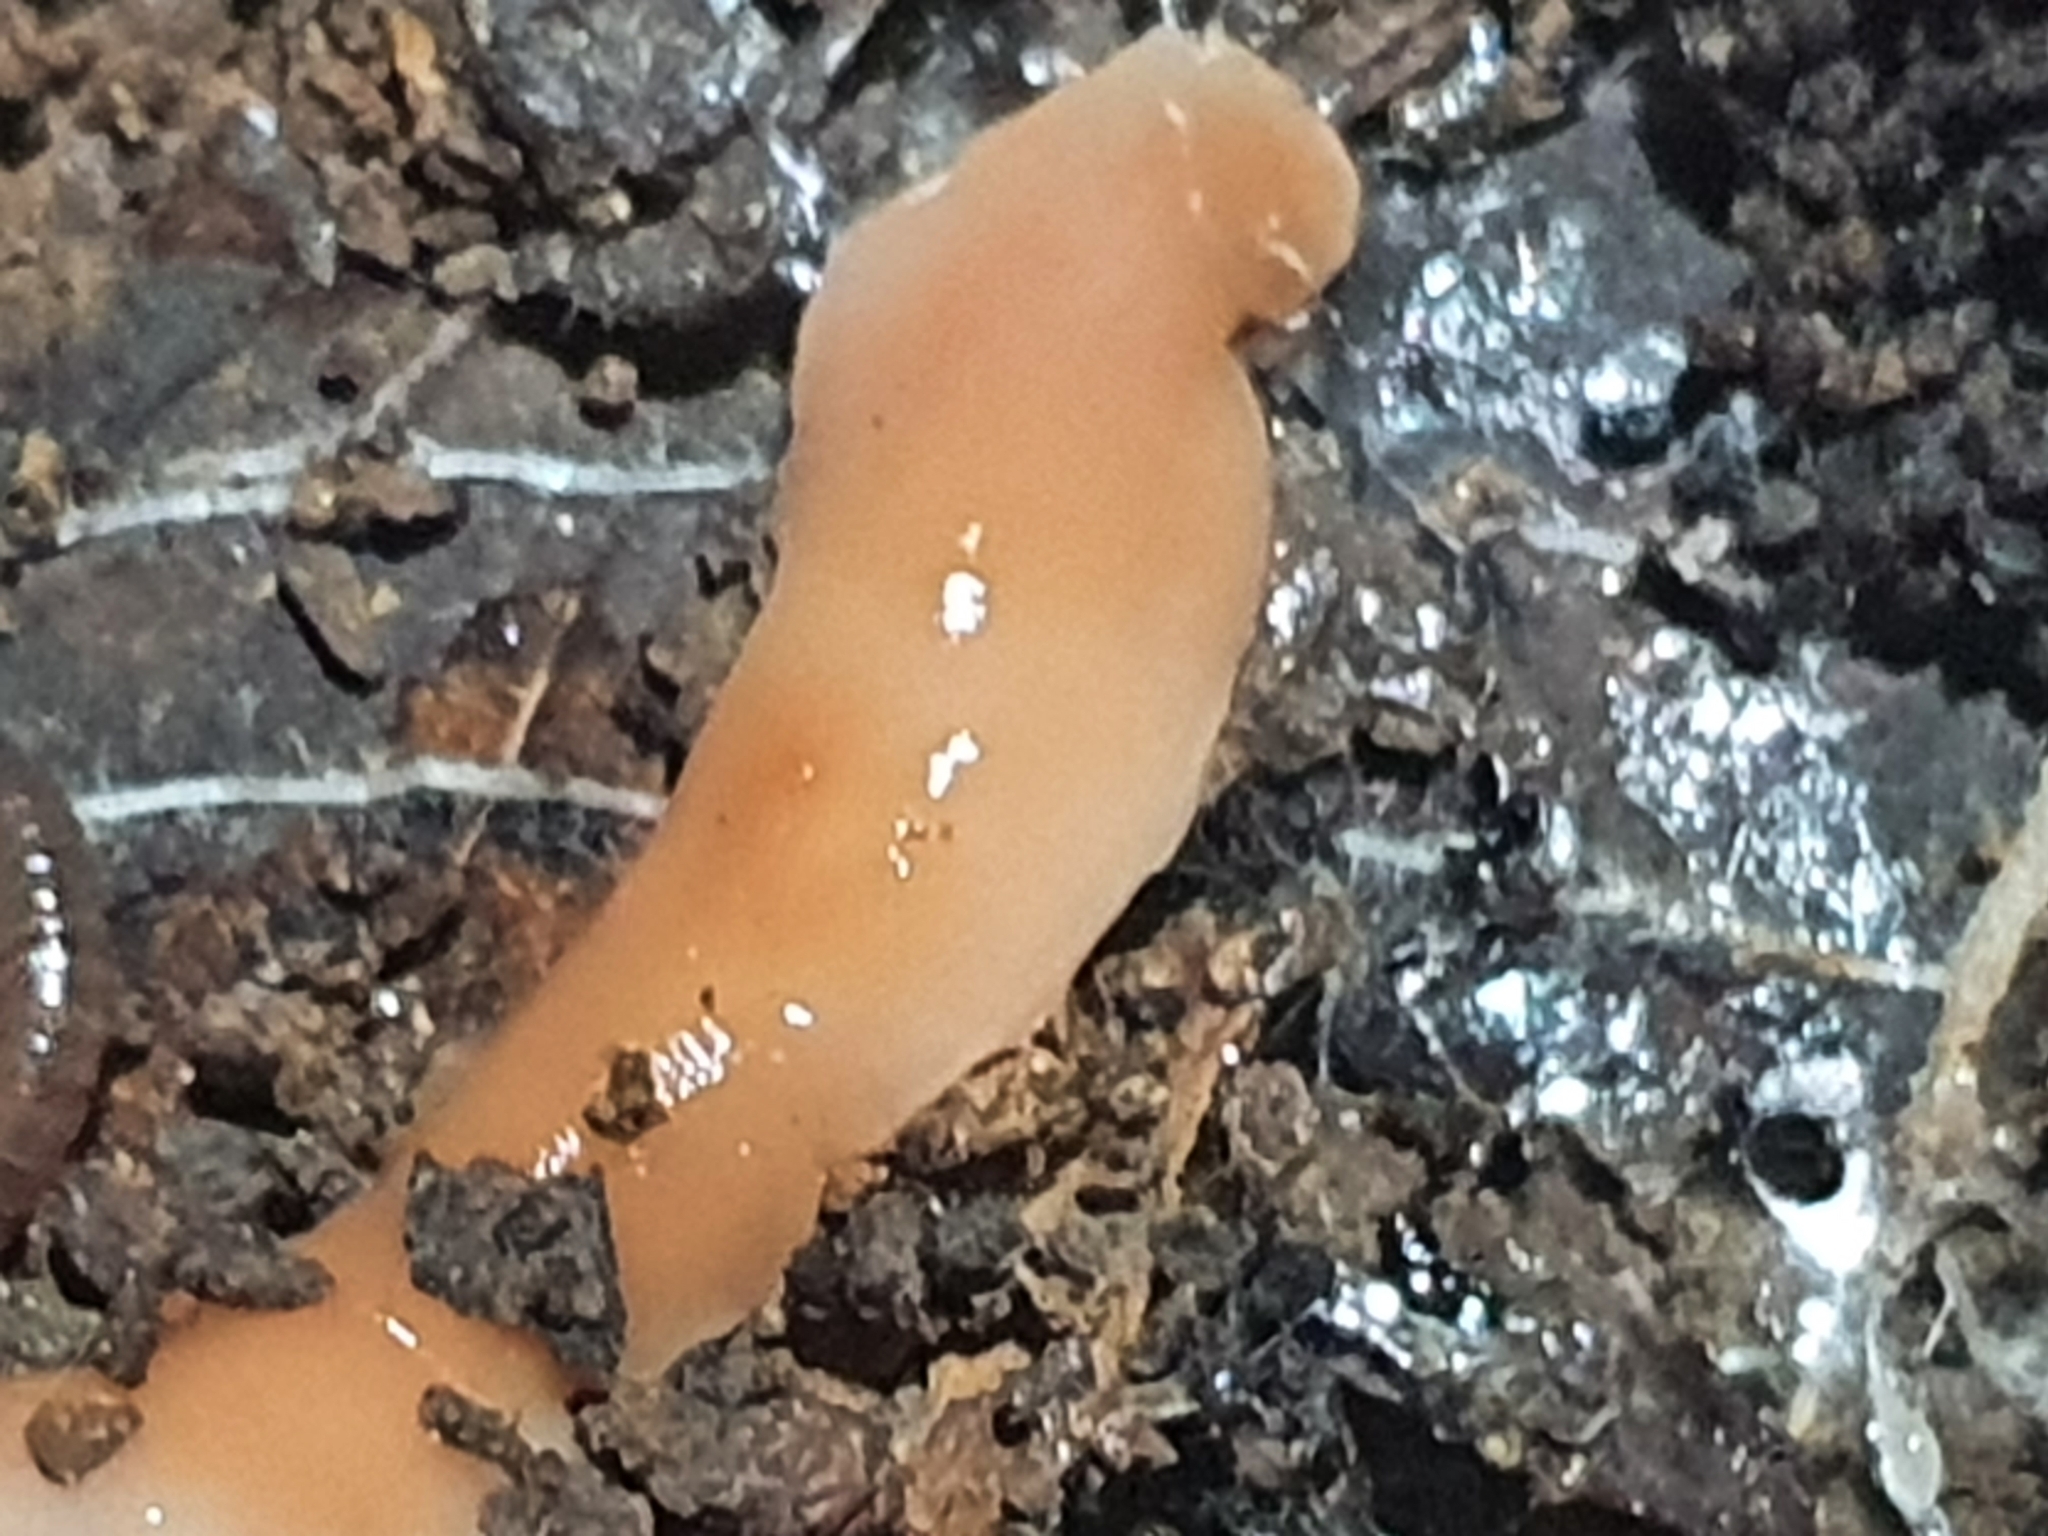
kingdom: Animalia
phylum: Platyhelminthes
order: Tricladida
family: Geoplanidae
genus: Australoplana
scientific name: Australoplana sanguinea
